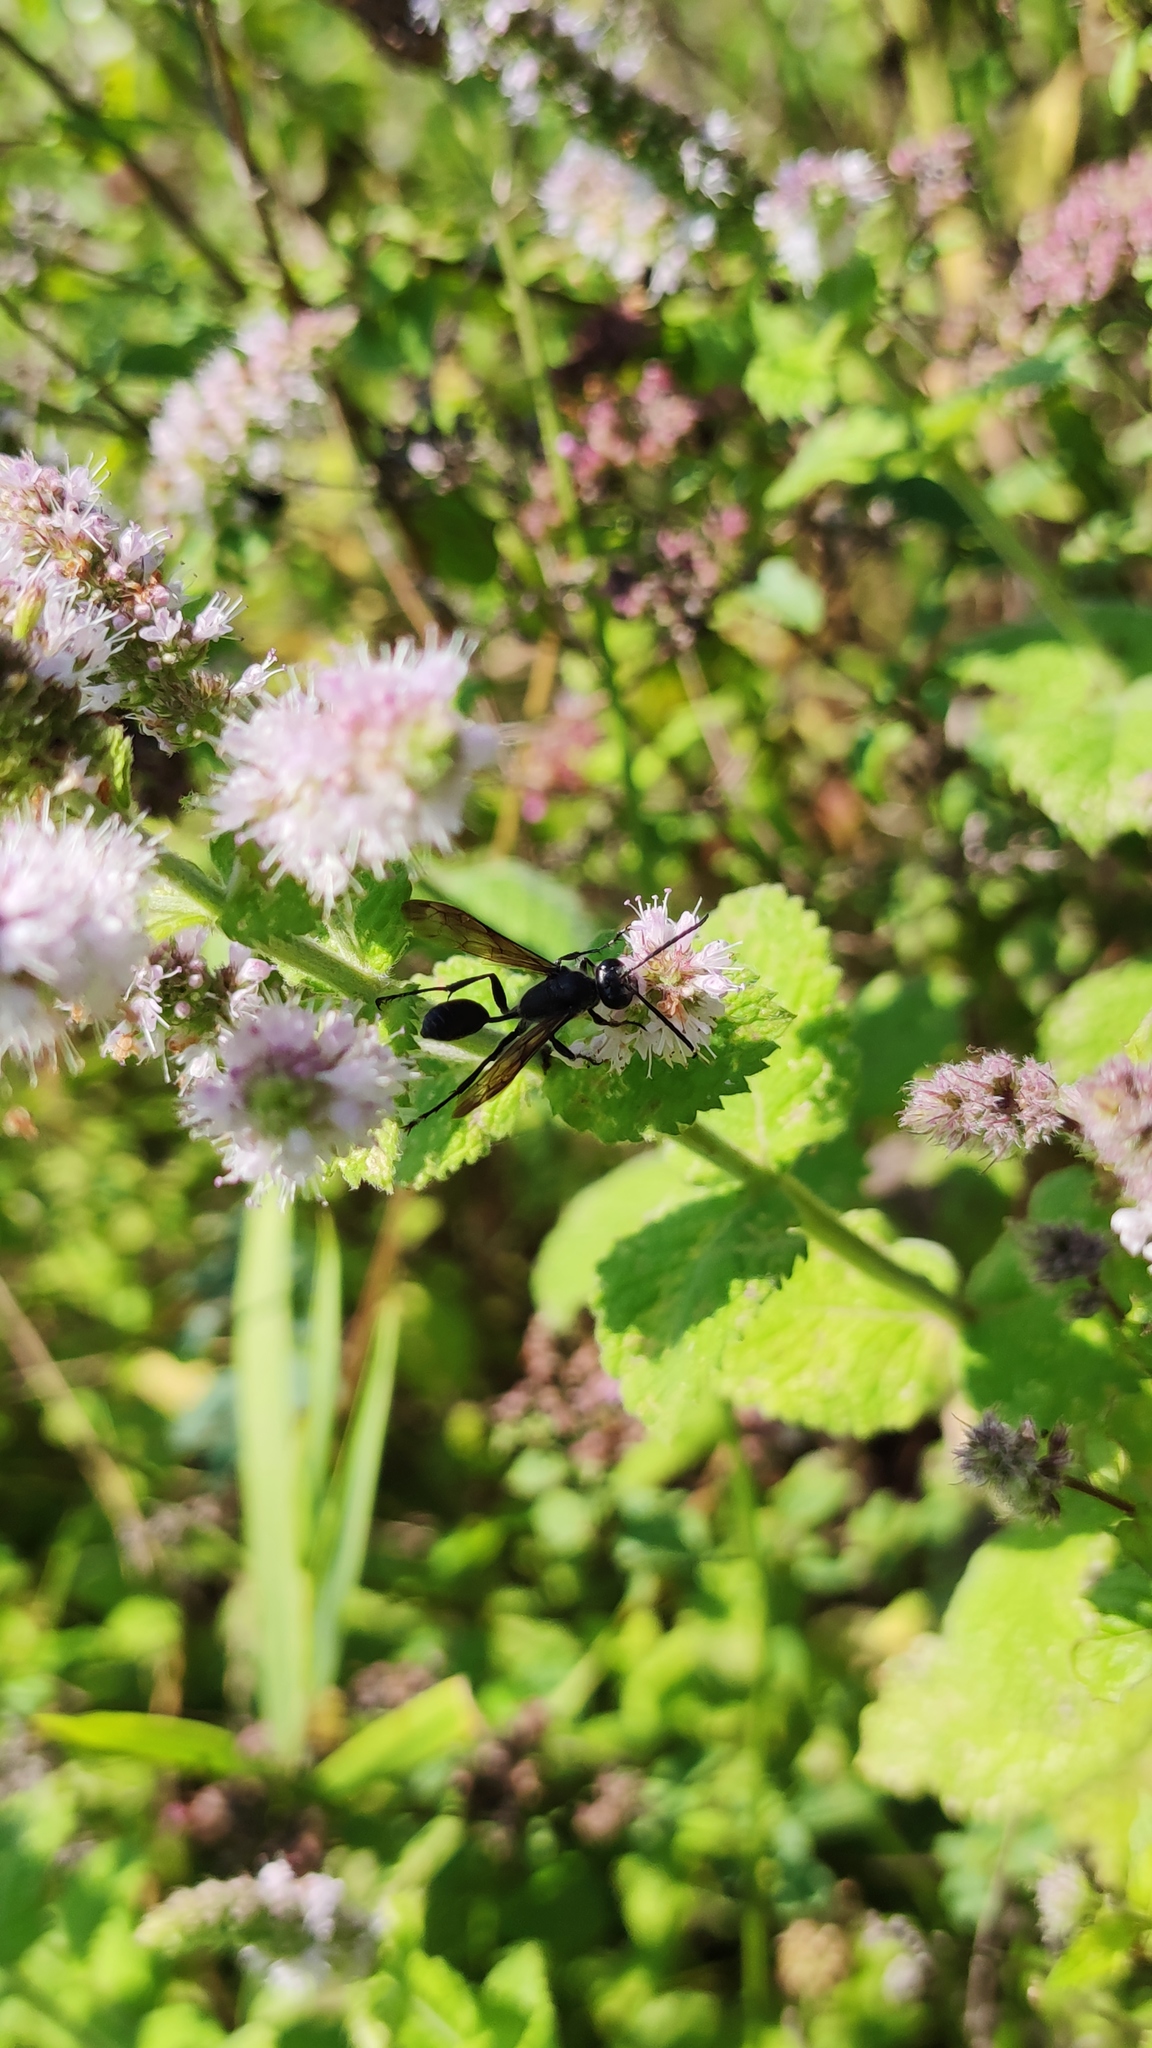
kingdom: Animalia
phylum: Arthropoda
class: Insecta
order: Hymenoptera
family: Sphecidae
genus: Isodontia
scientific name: Isodontia mexicana
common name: Mud dauber
